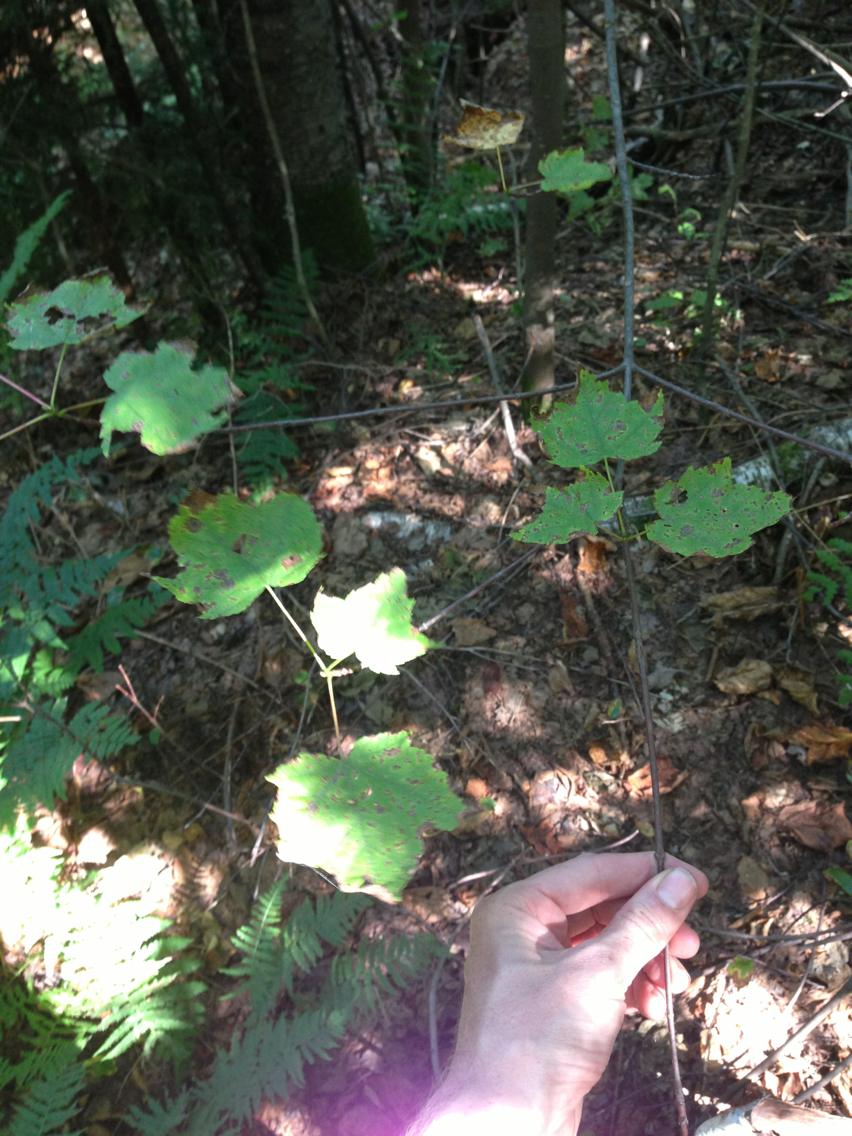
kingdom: Plantae
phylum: Tracheophyta
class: Magnoliopsida
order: Sapindales
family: Sapindaceae
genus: Acer
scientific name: Acer rubrum
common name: Red maple
